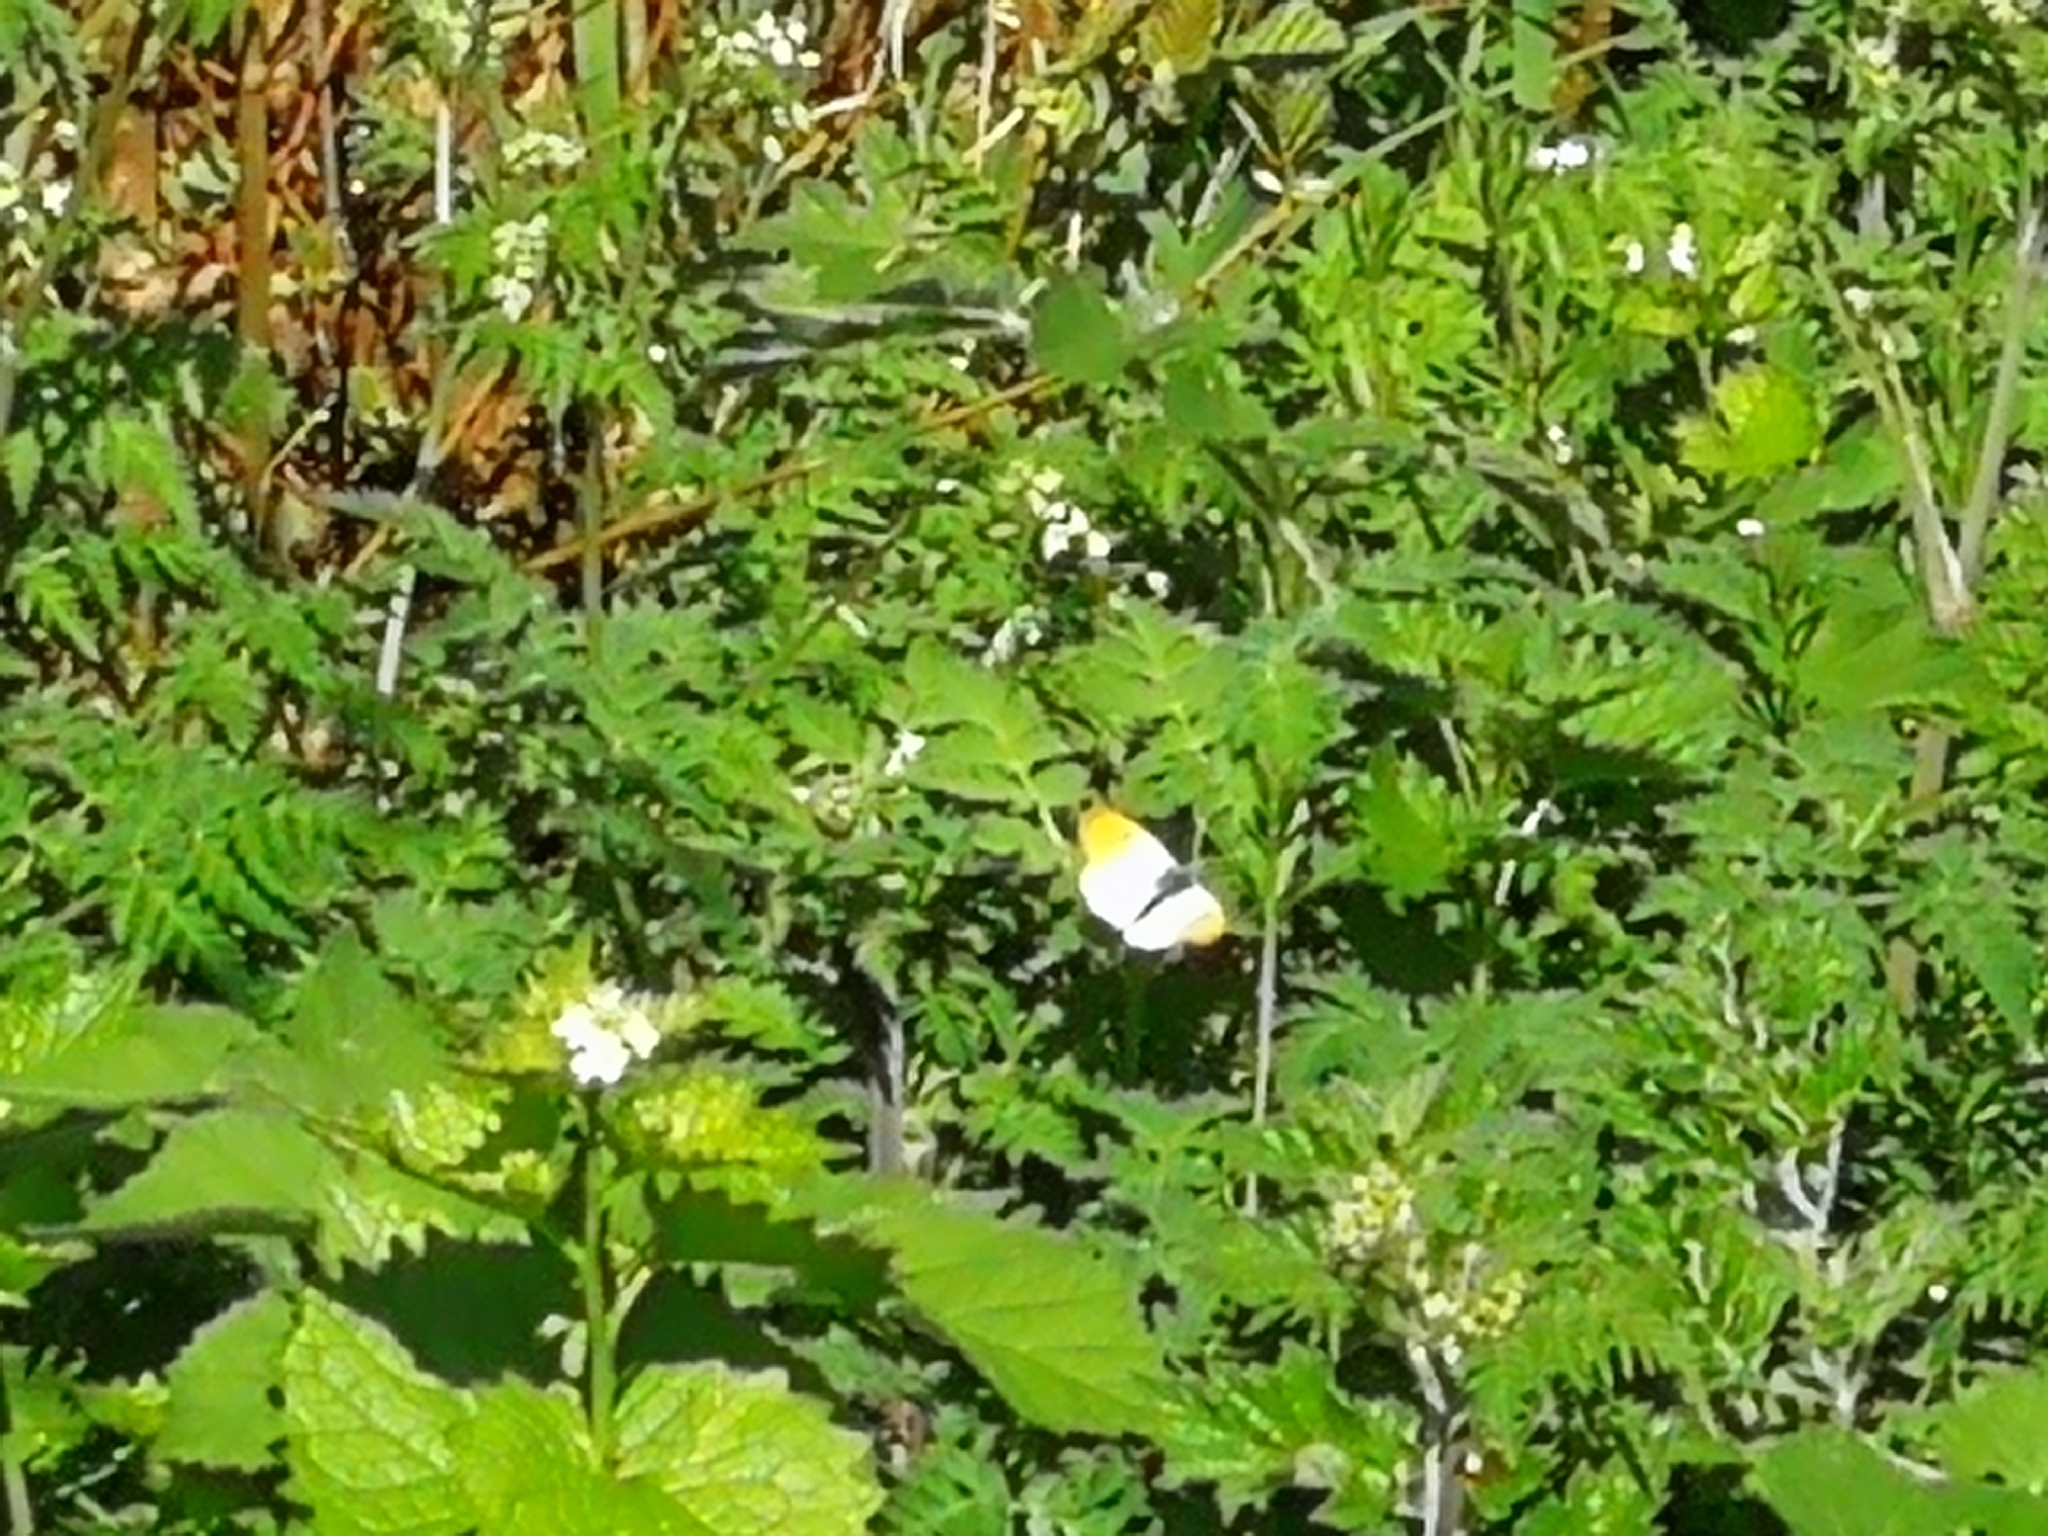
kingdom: Animalia
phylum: Arthropoda
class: Insecta
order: Lepidoptera
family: Pieridae
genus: Anthocharis
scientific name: Anthocharis cardamines
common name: Orange-tip
